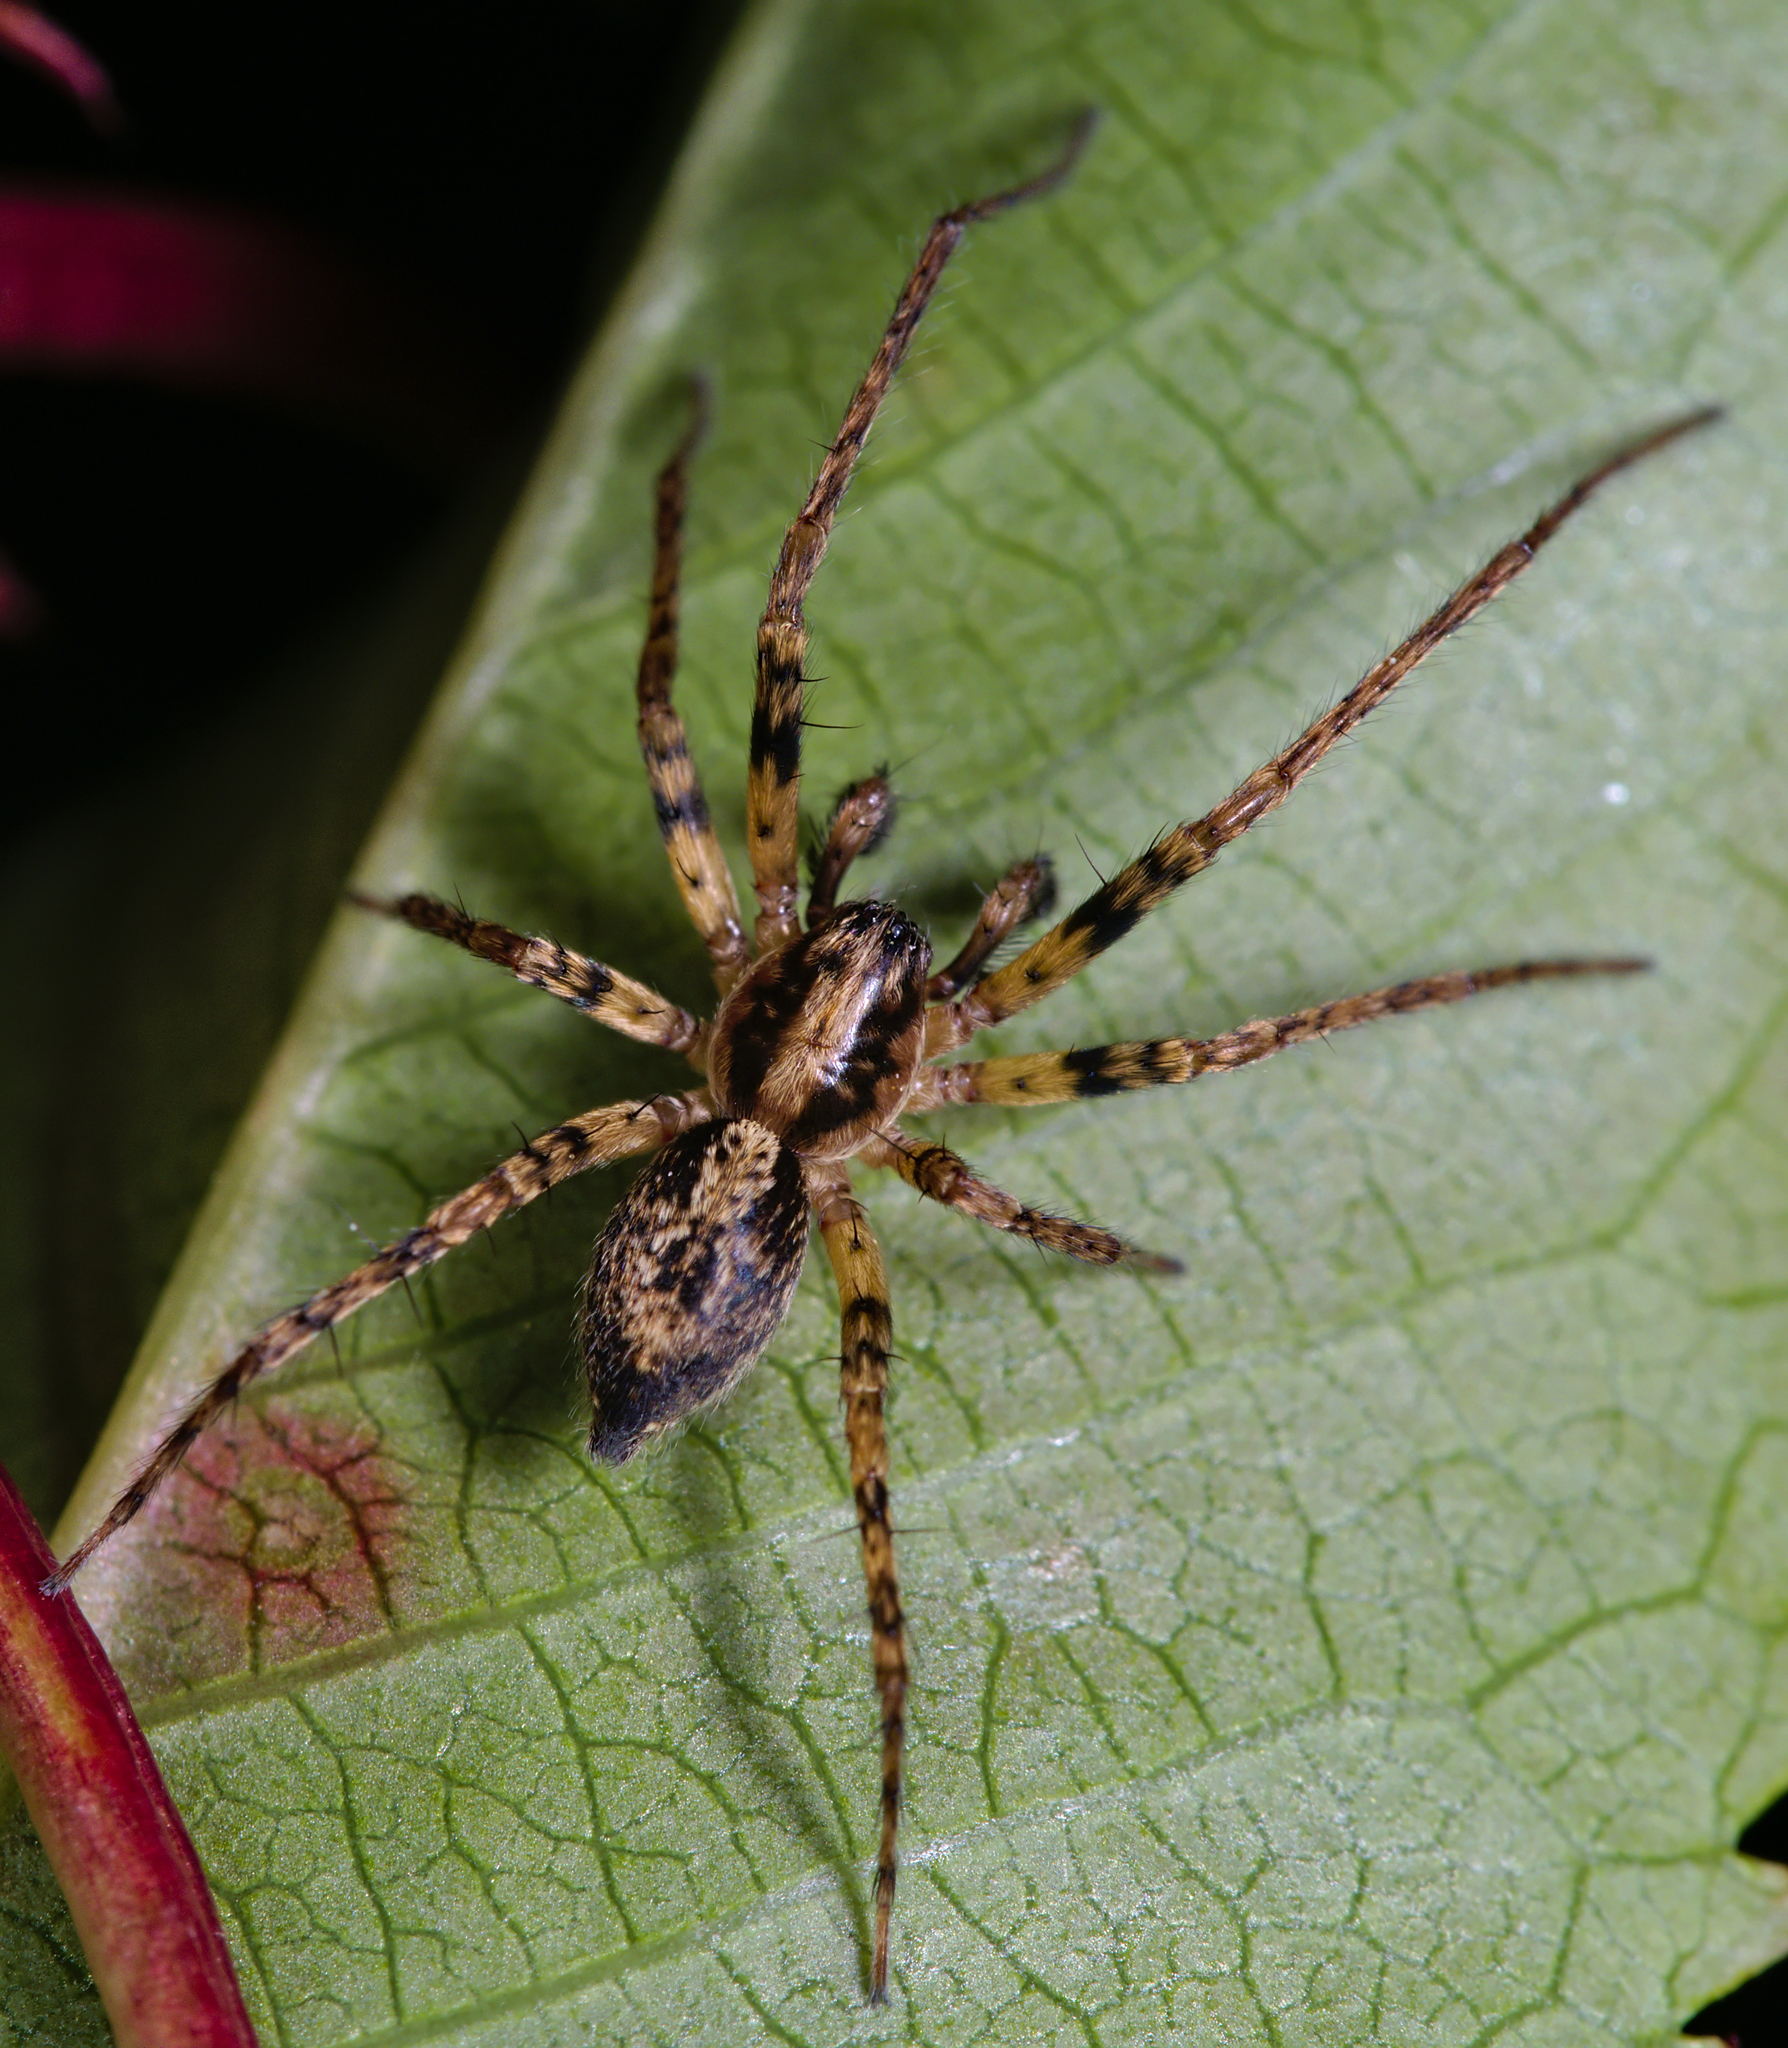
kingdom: Animalia
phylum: Arthropoda
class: Arachnida
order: Araneae
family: Anyphaenidae
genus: Anyphaena
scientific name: Anyphaena accentuata
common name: Buzzing spider
